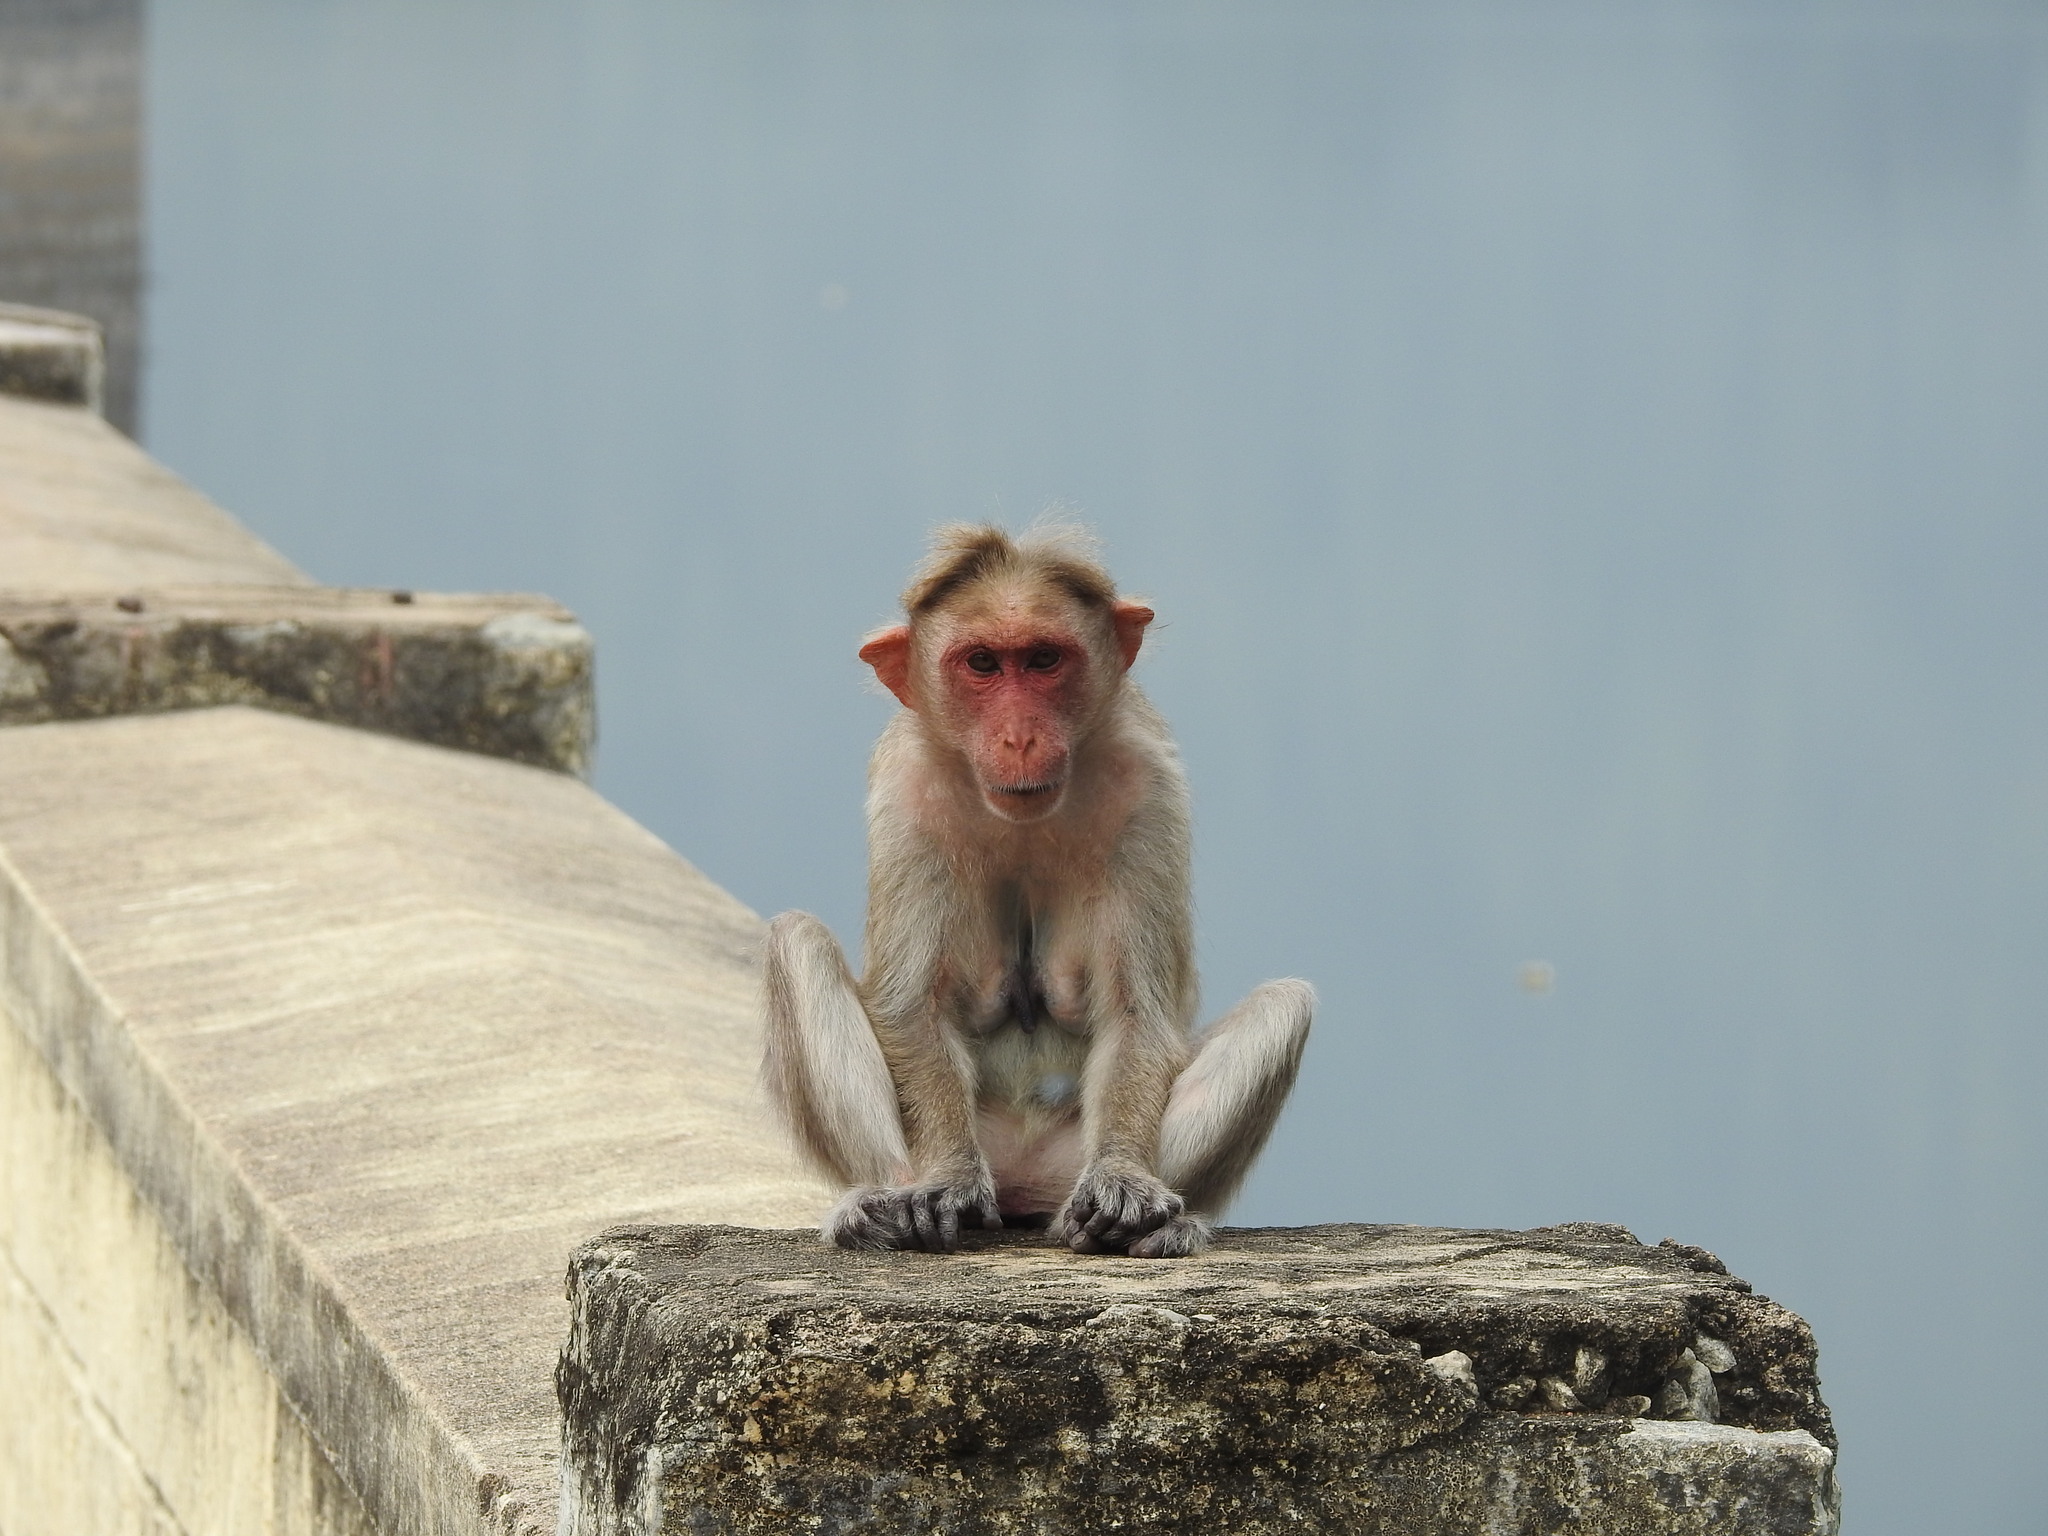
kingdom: Animalia
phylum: Chordata
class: Mammalia
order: Primates
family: Cercopithecidae
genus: Macaca
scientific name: Macaca radiata
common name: Bonnet macaque
